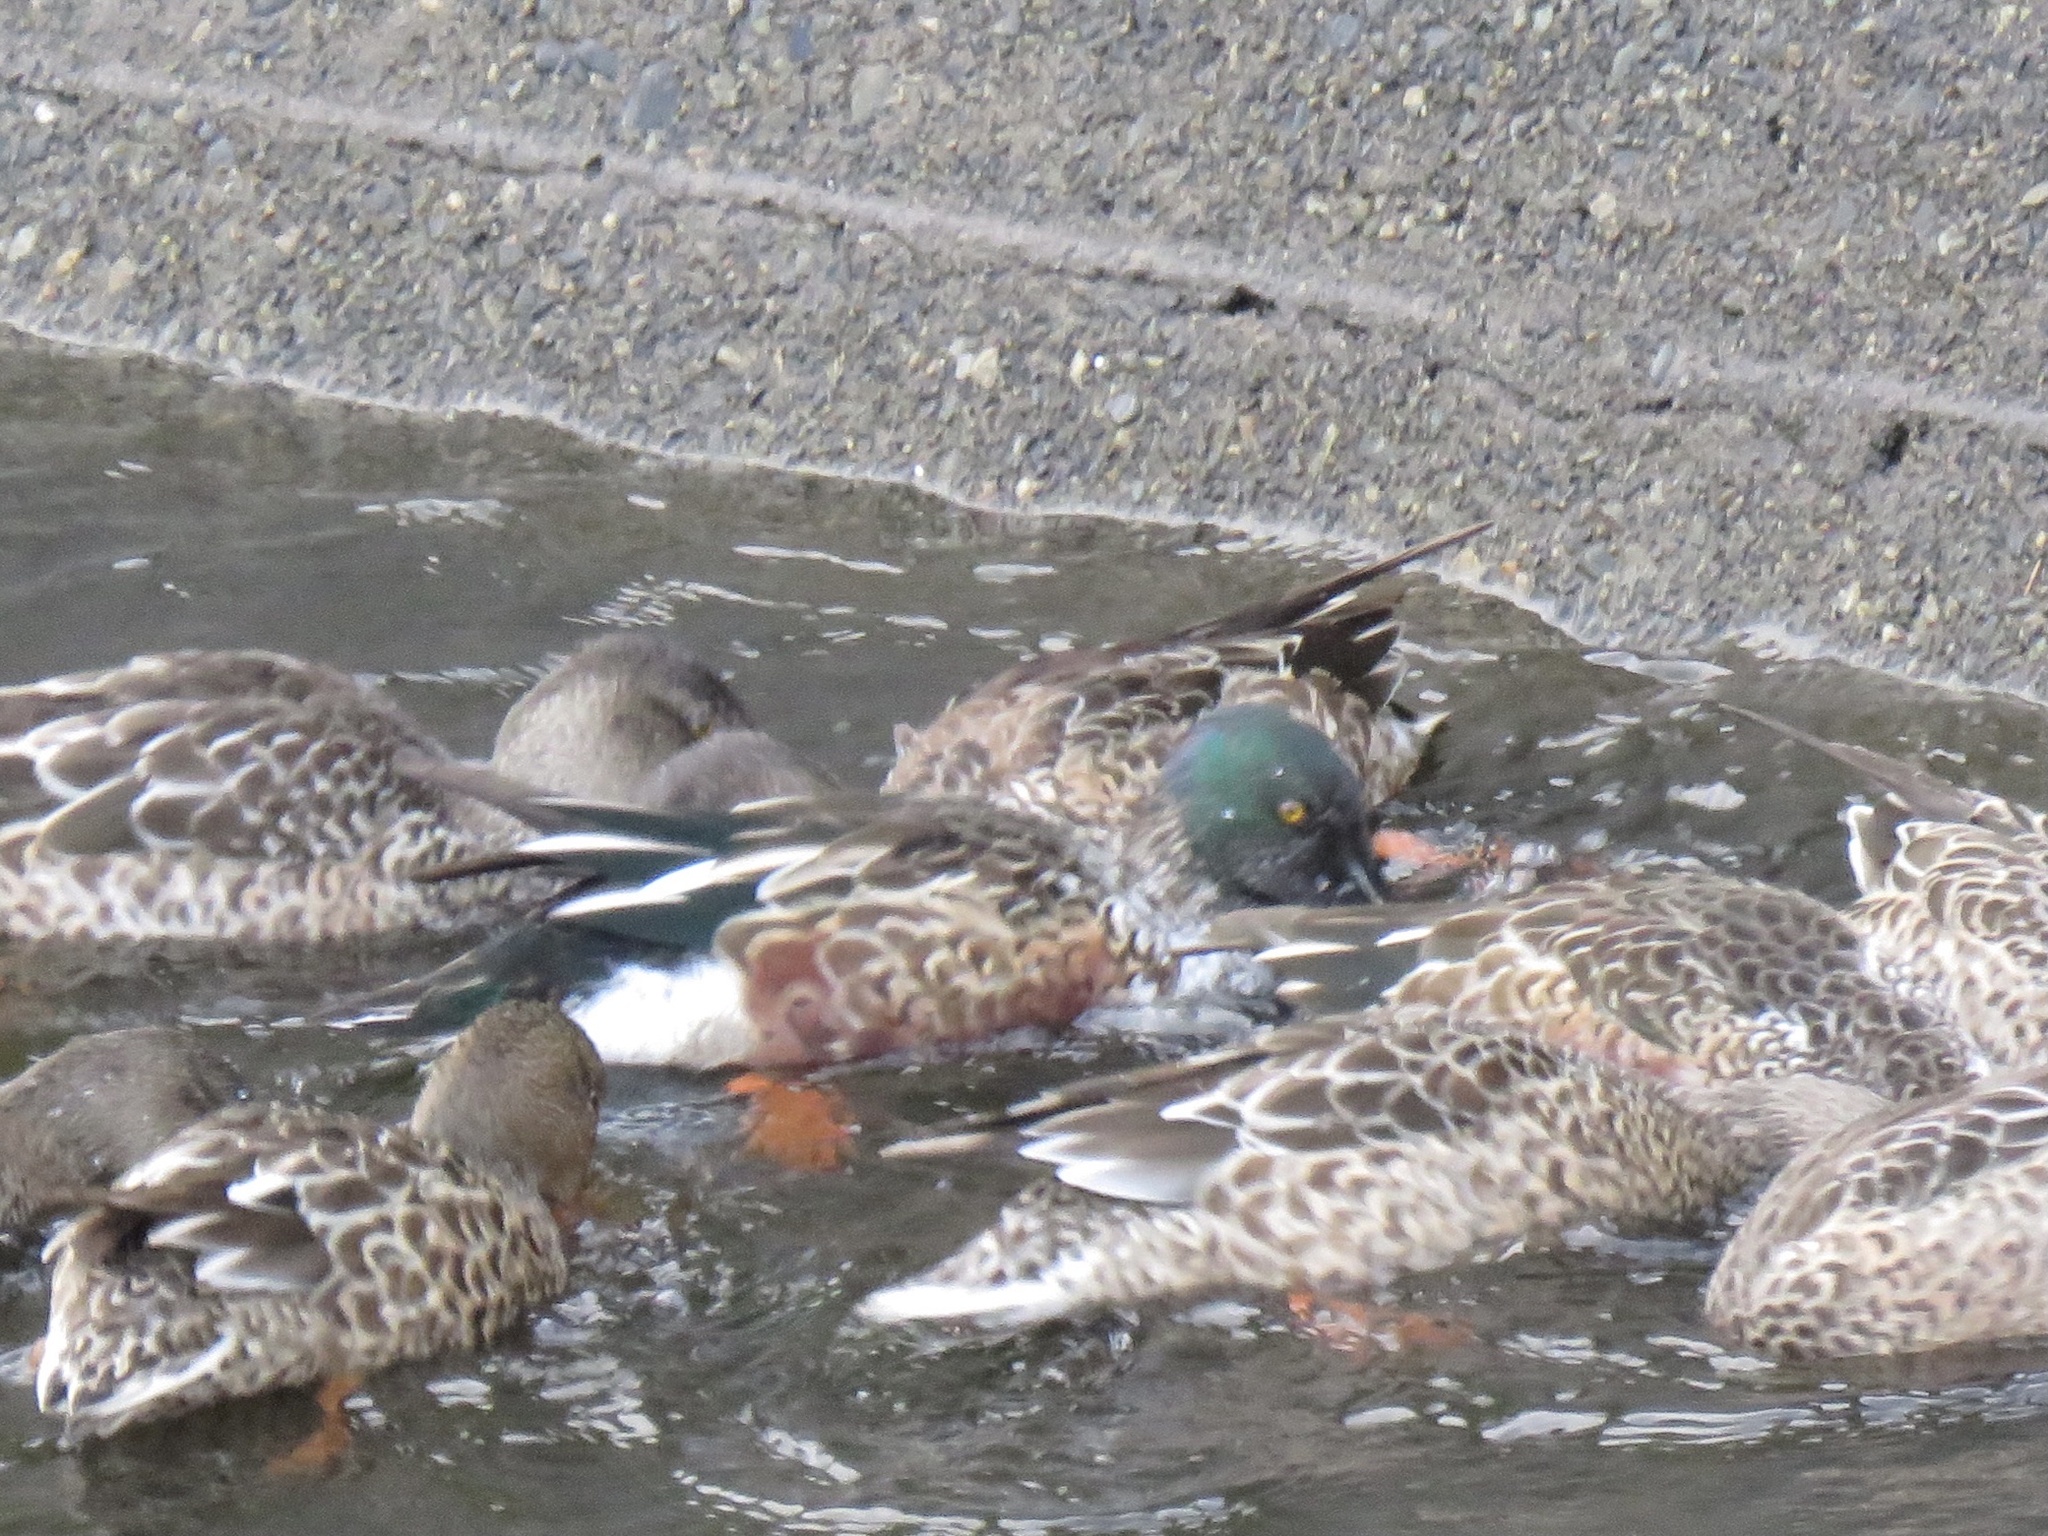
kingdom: Animalia
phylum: Chordata
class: Aves
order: Anseriformes
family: Anatidae
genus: Spatula
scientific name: Spatula clypeata
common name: Northern shoveler
